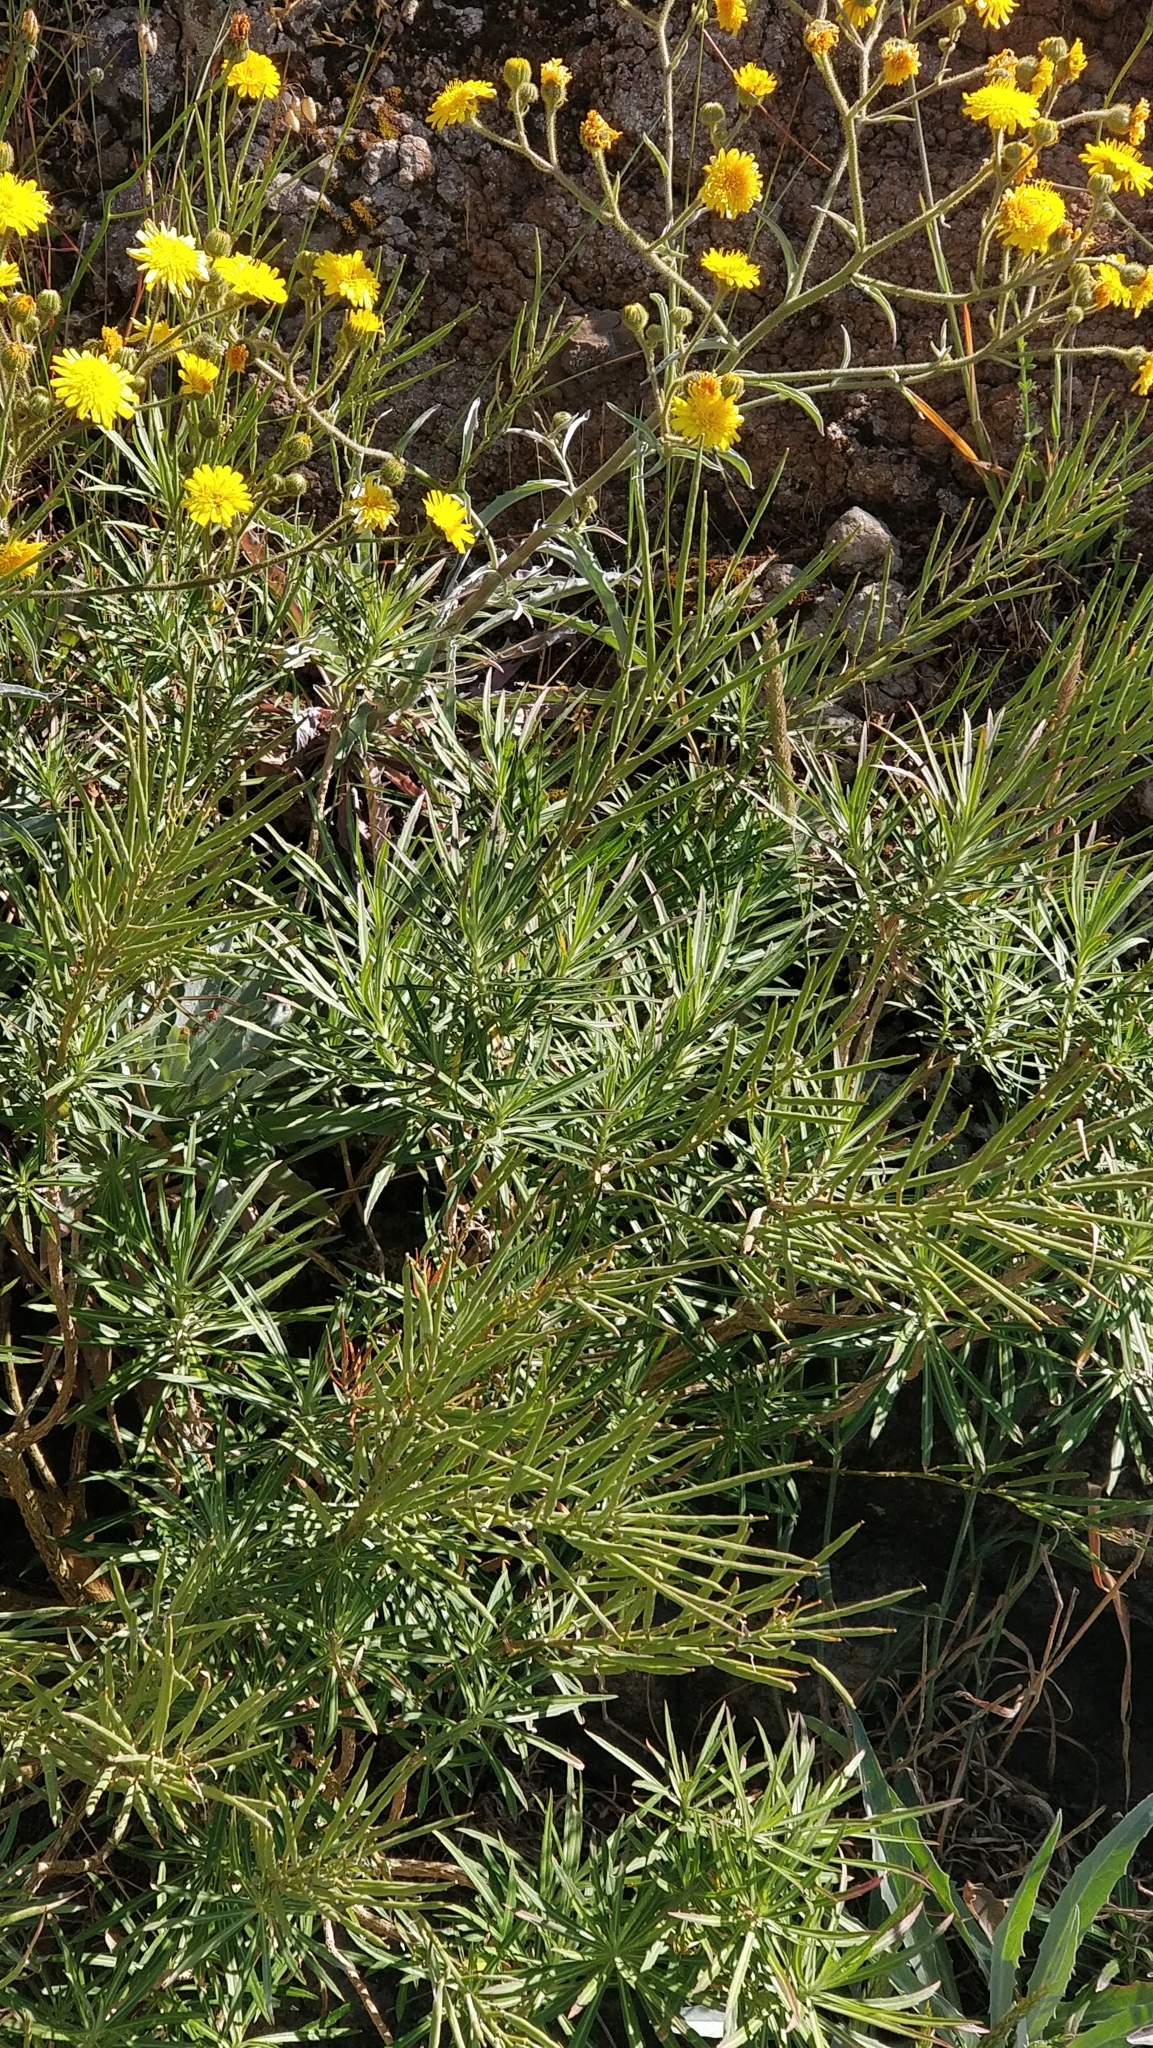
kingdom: Plantae
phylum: Tracheophyta
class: Magnoliopsida
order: Brassicales
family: Brassicaceae
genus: Erysimum
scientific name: Erysimum bicolor
